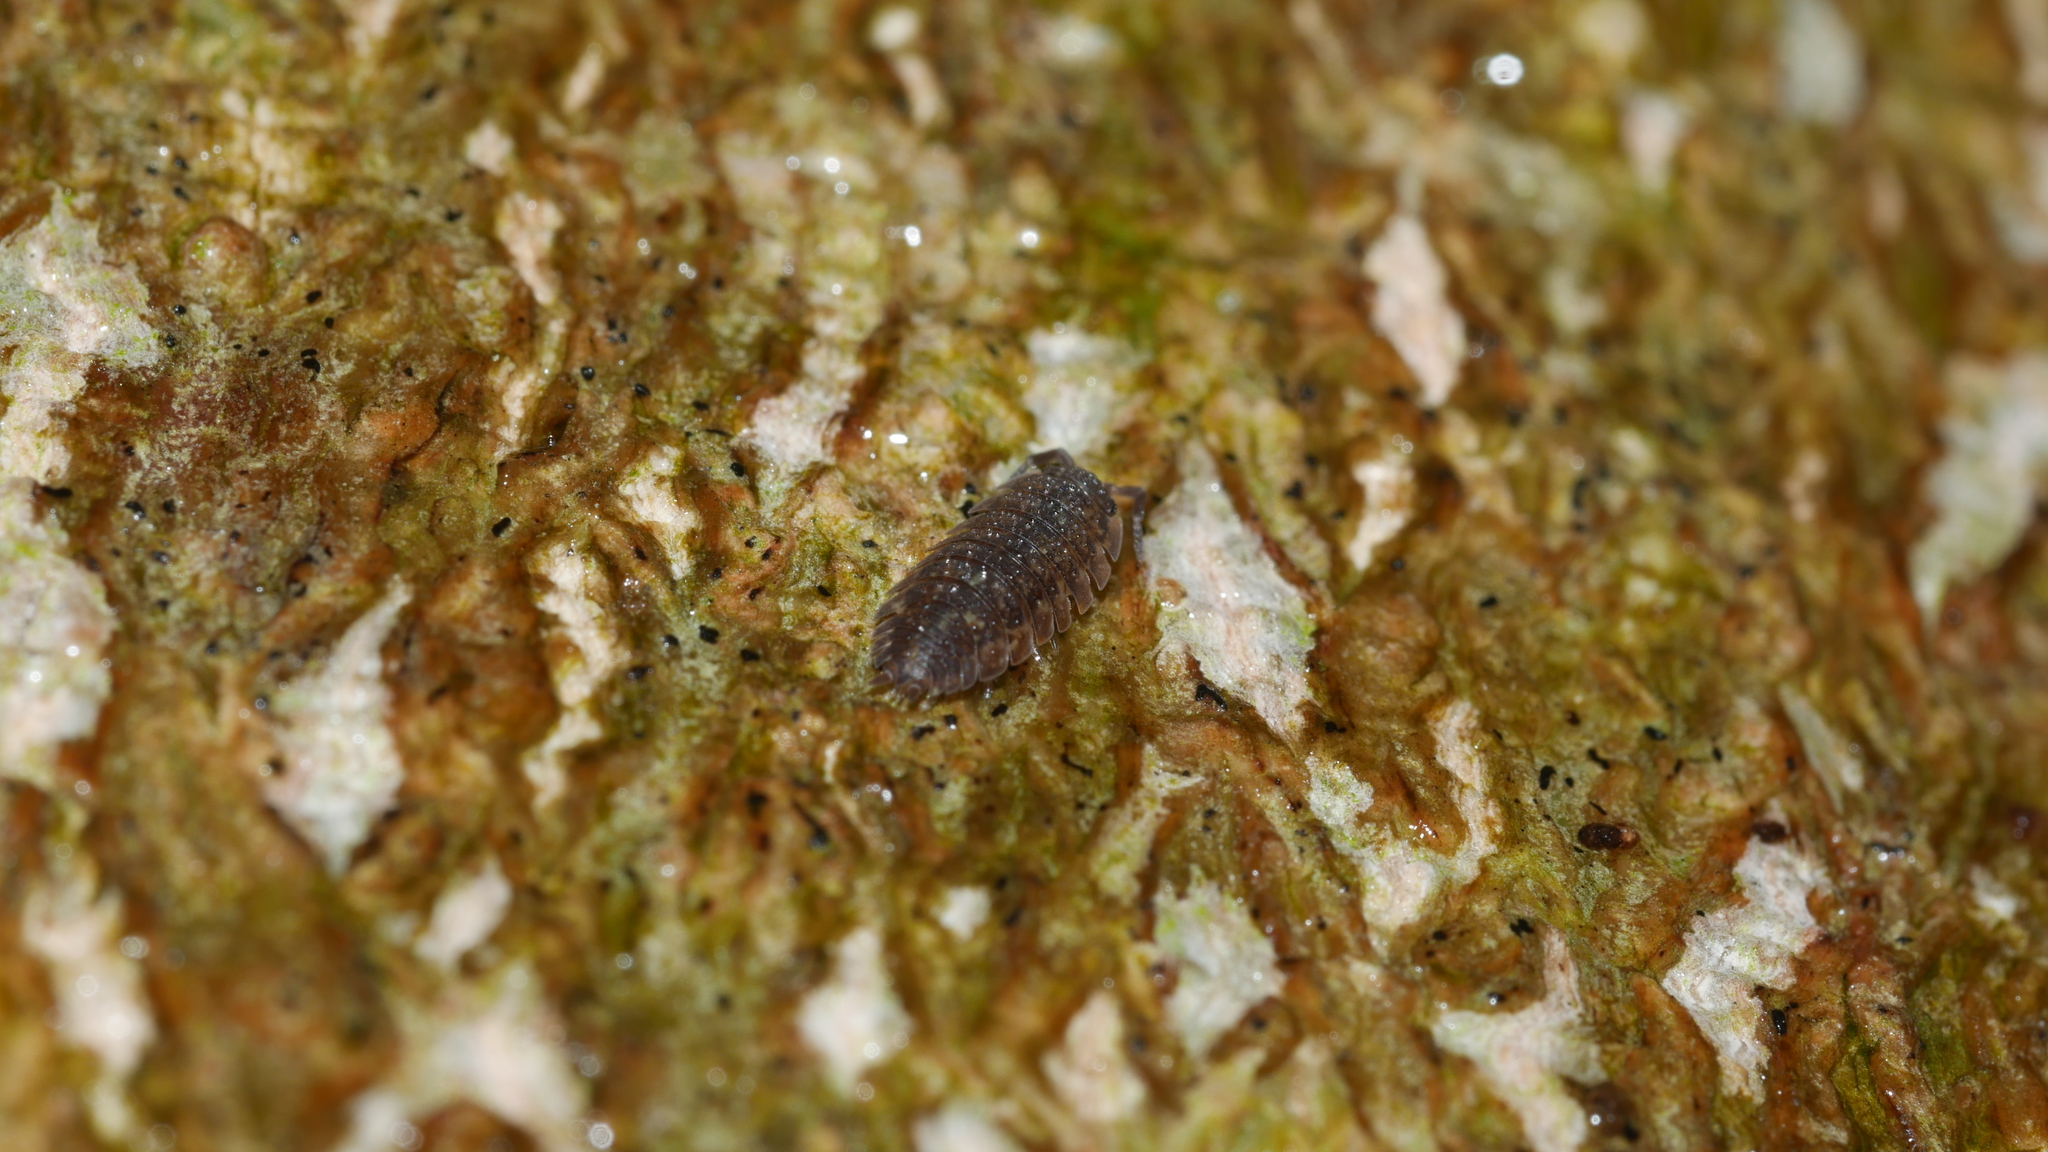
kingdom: Animalia
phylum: Arthropoda
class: Malacostraca
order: Isopoda
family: Porcellionidae
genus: Porcellio
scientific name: Porcellio scaber
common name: Common rough woodlouse
